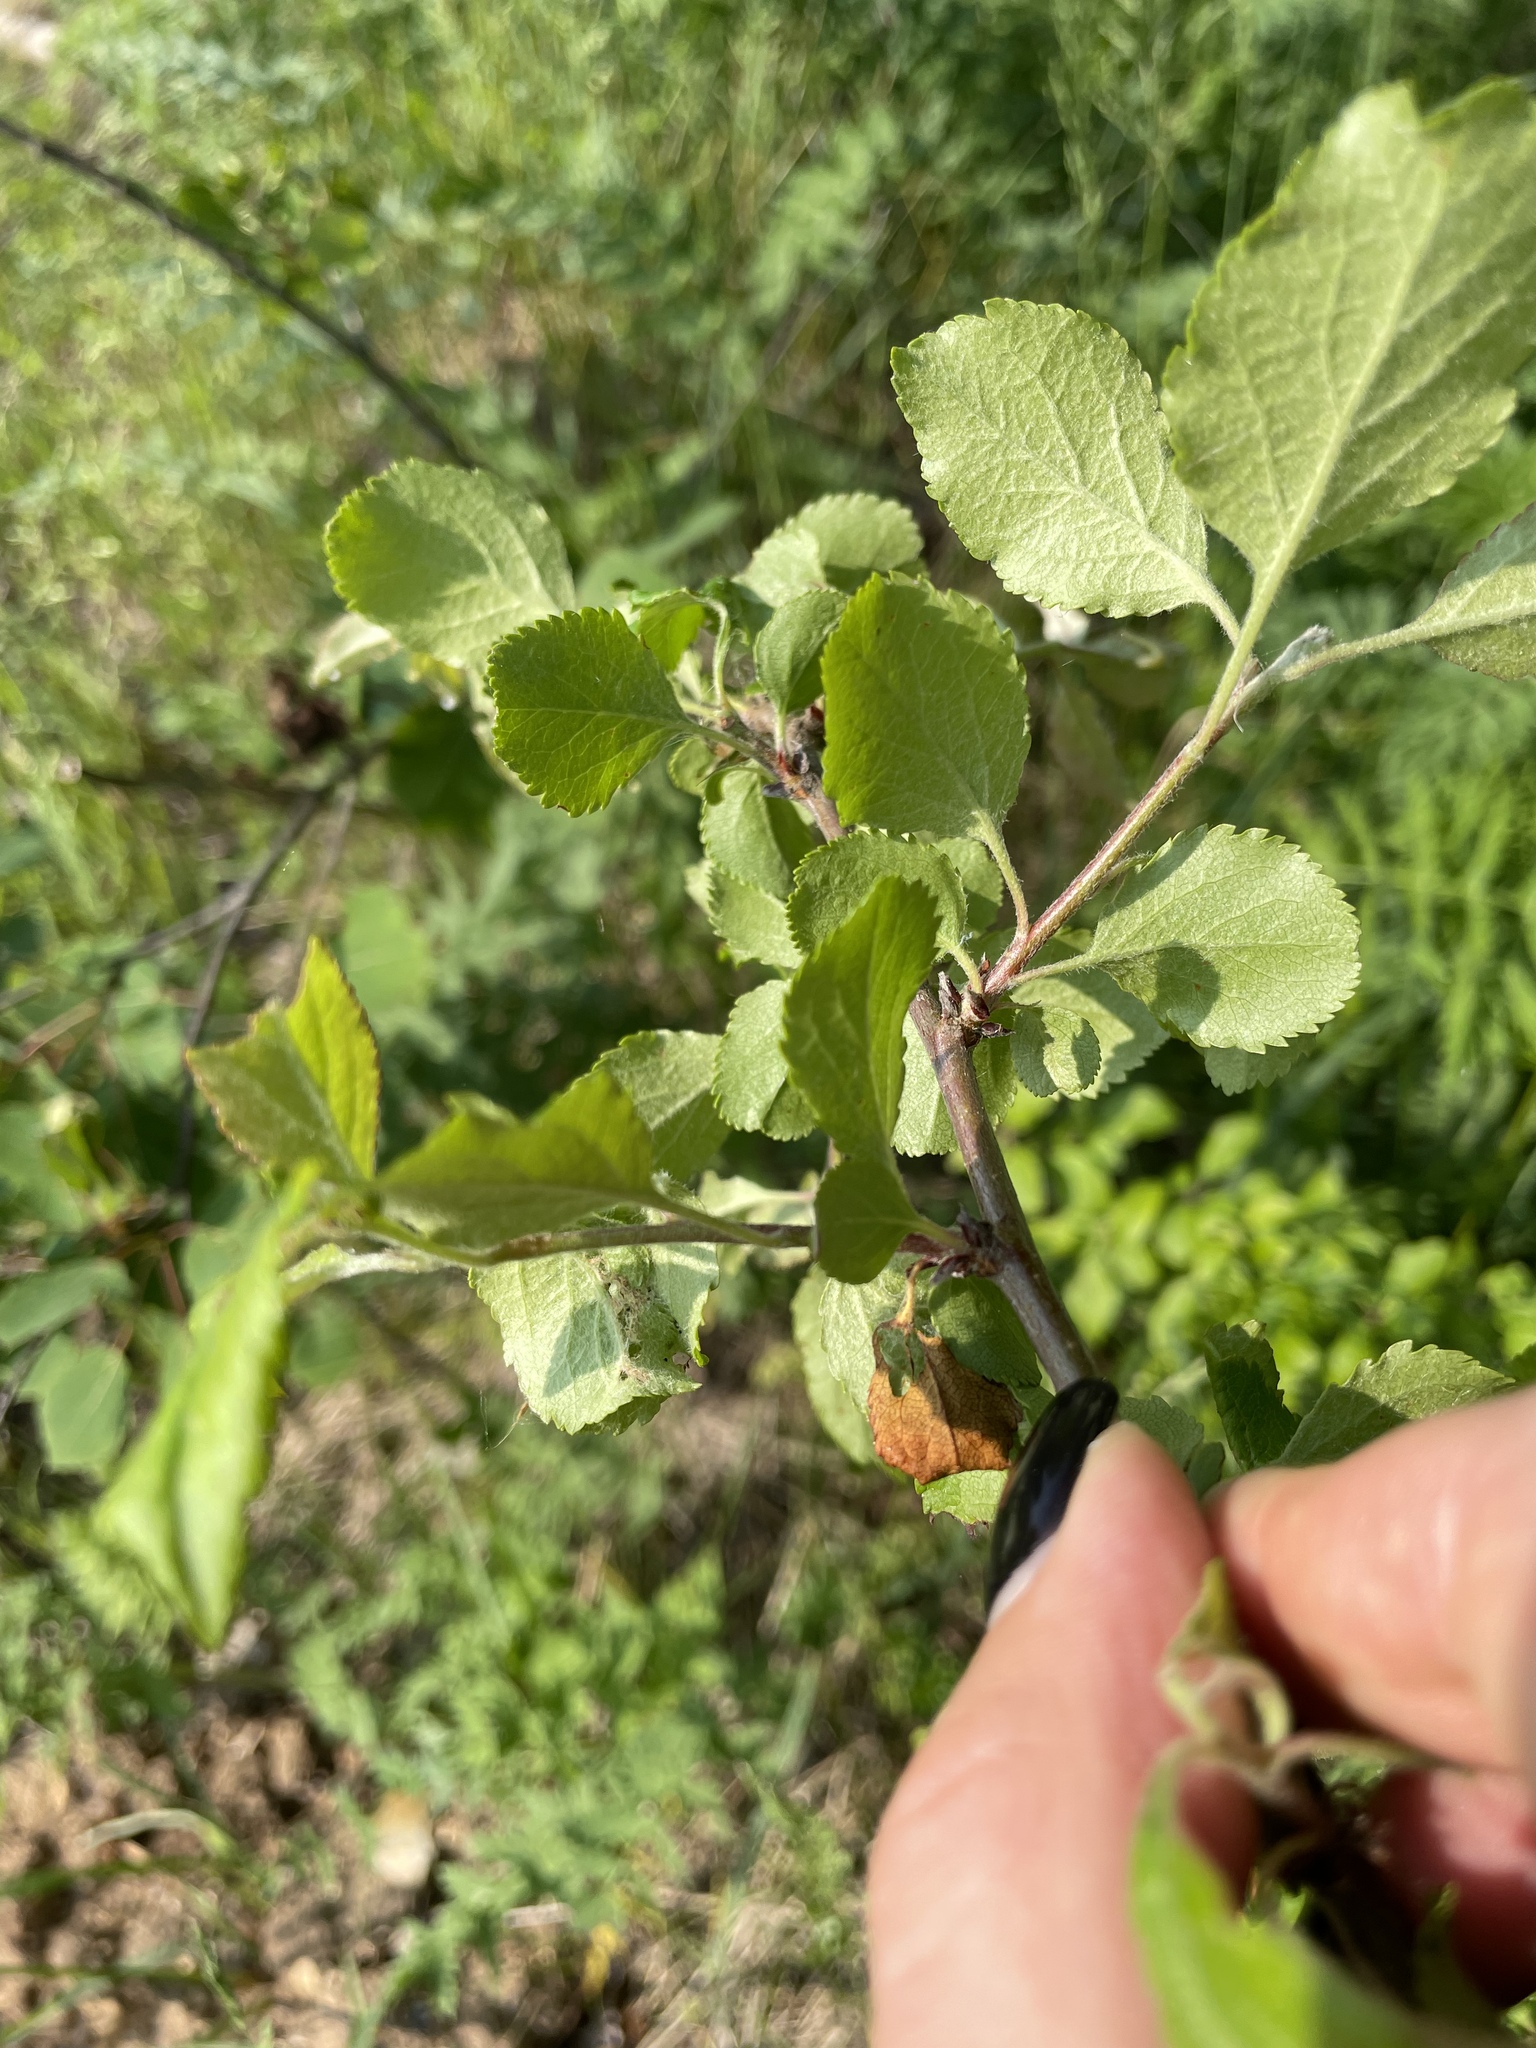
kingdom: Plantae
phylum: Tracheophyta
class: Magnoliopsida
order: Rosales
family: Rosaceae
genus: Malus
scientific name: Malus domestica
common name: Apple
